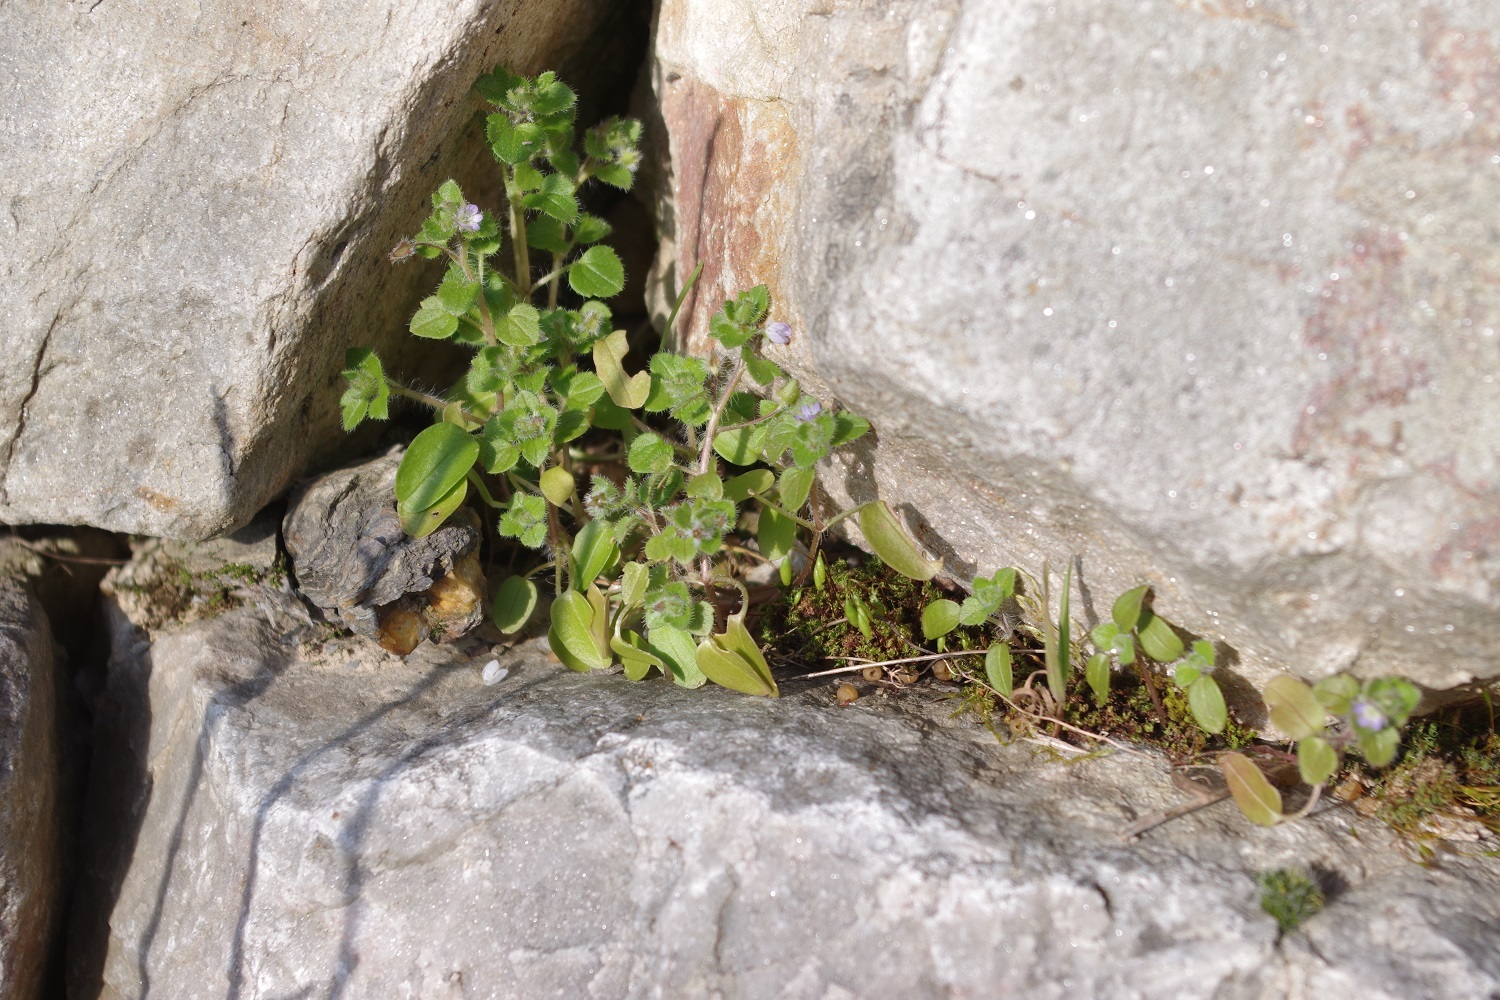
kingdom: Plantae
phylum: Tracheophyta
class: Magnoliopsida
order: Lamiales
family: Plantaginaceae
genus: Veronica
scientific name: Veronica hederifolia
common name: Ivy-leaved speedwell
